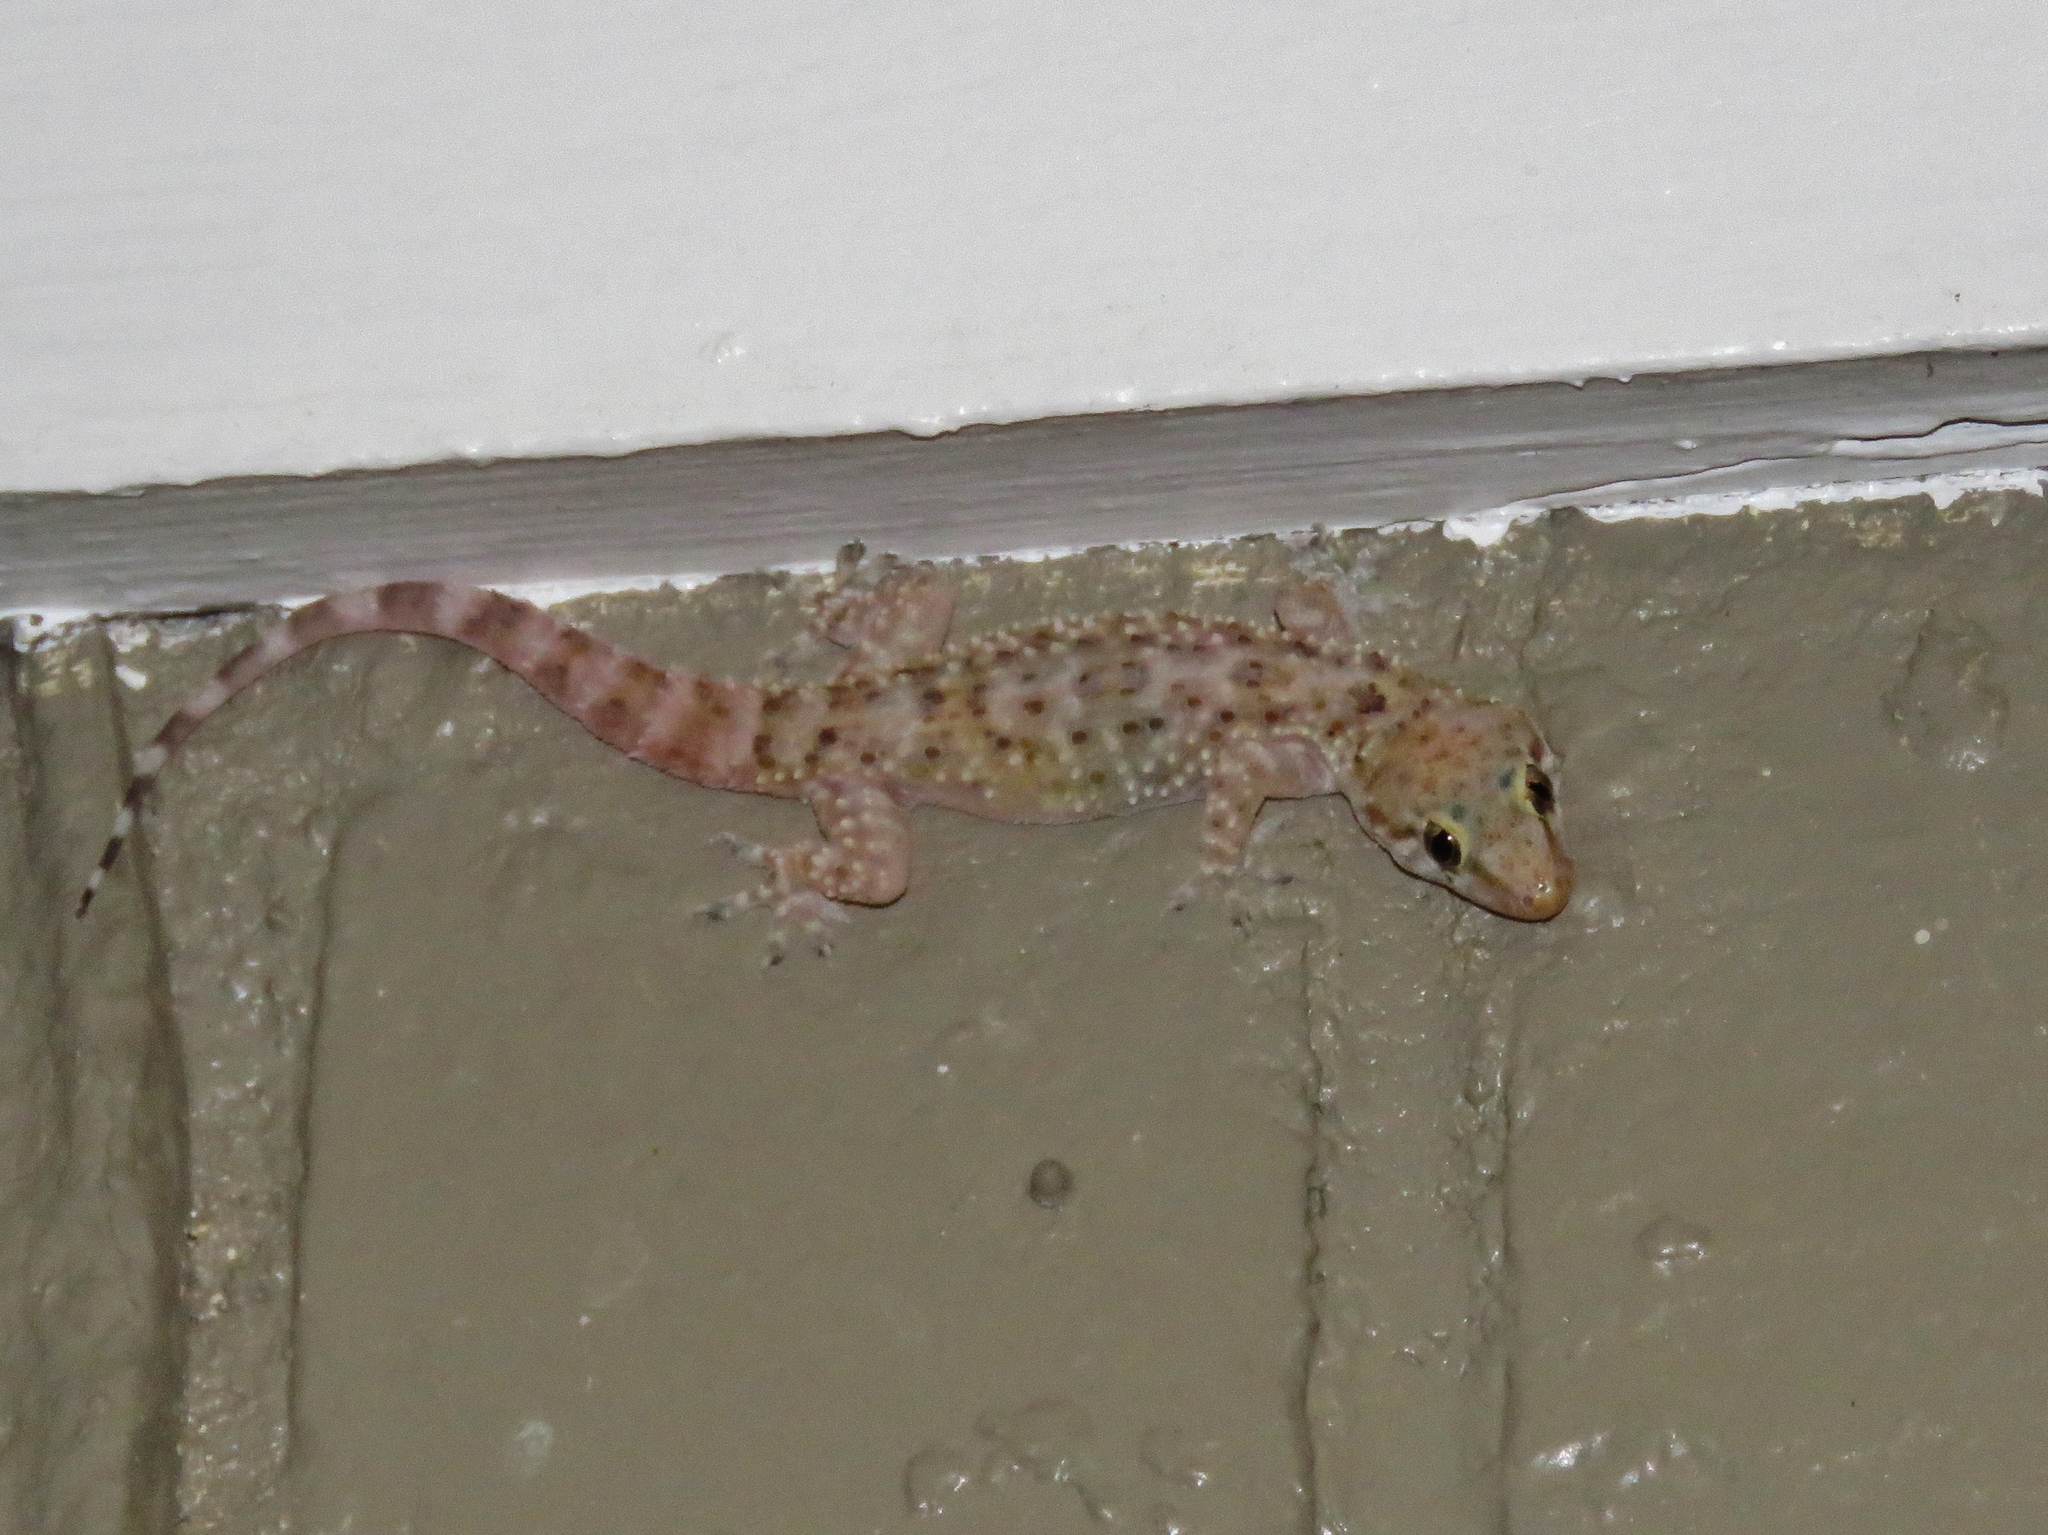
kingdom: Animalia
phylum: Chordata
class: Squamata
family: Gekkonidae
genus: Hemidactylus
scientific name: Hemidactylus turcicus
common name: Turkish gecko
